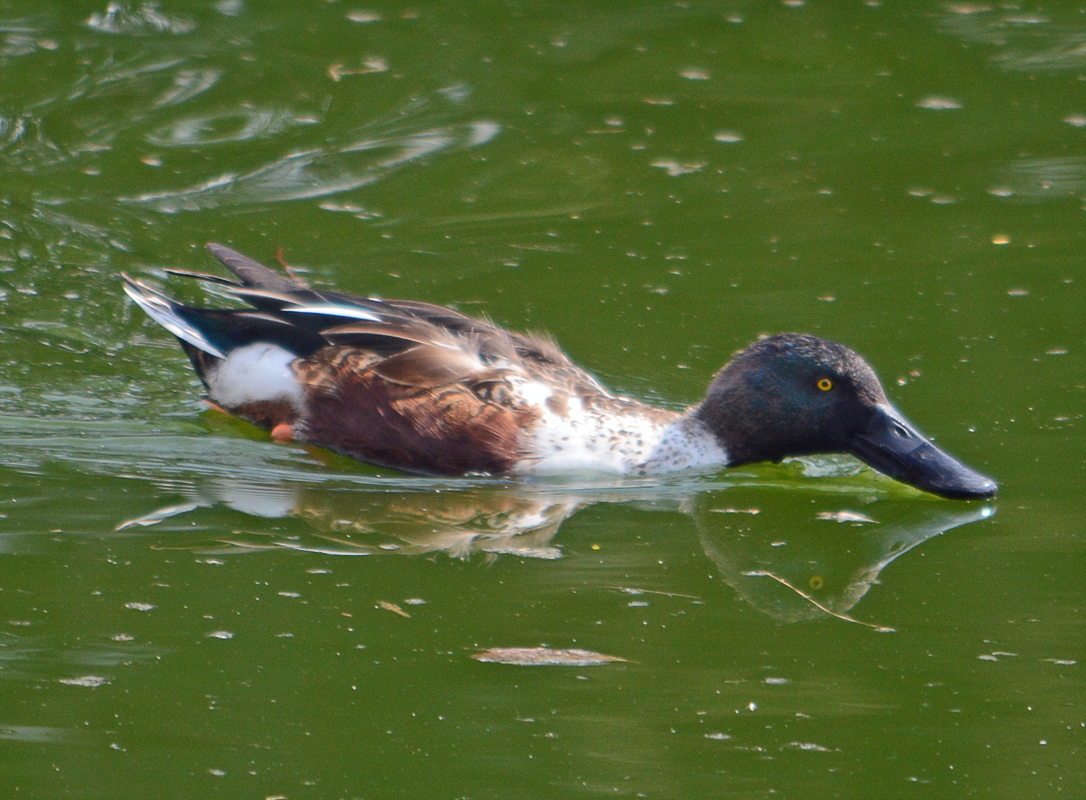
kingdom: Animalia
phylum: Chordata
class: Aves
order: Anseriformes
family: Anatidae
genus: Spatula
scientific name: Spatula clypeata
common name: Northern shoveler
